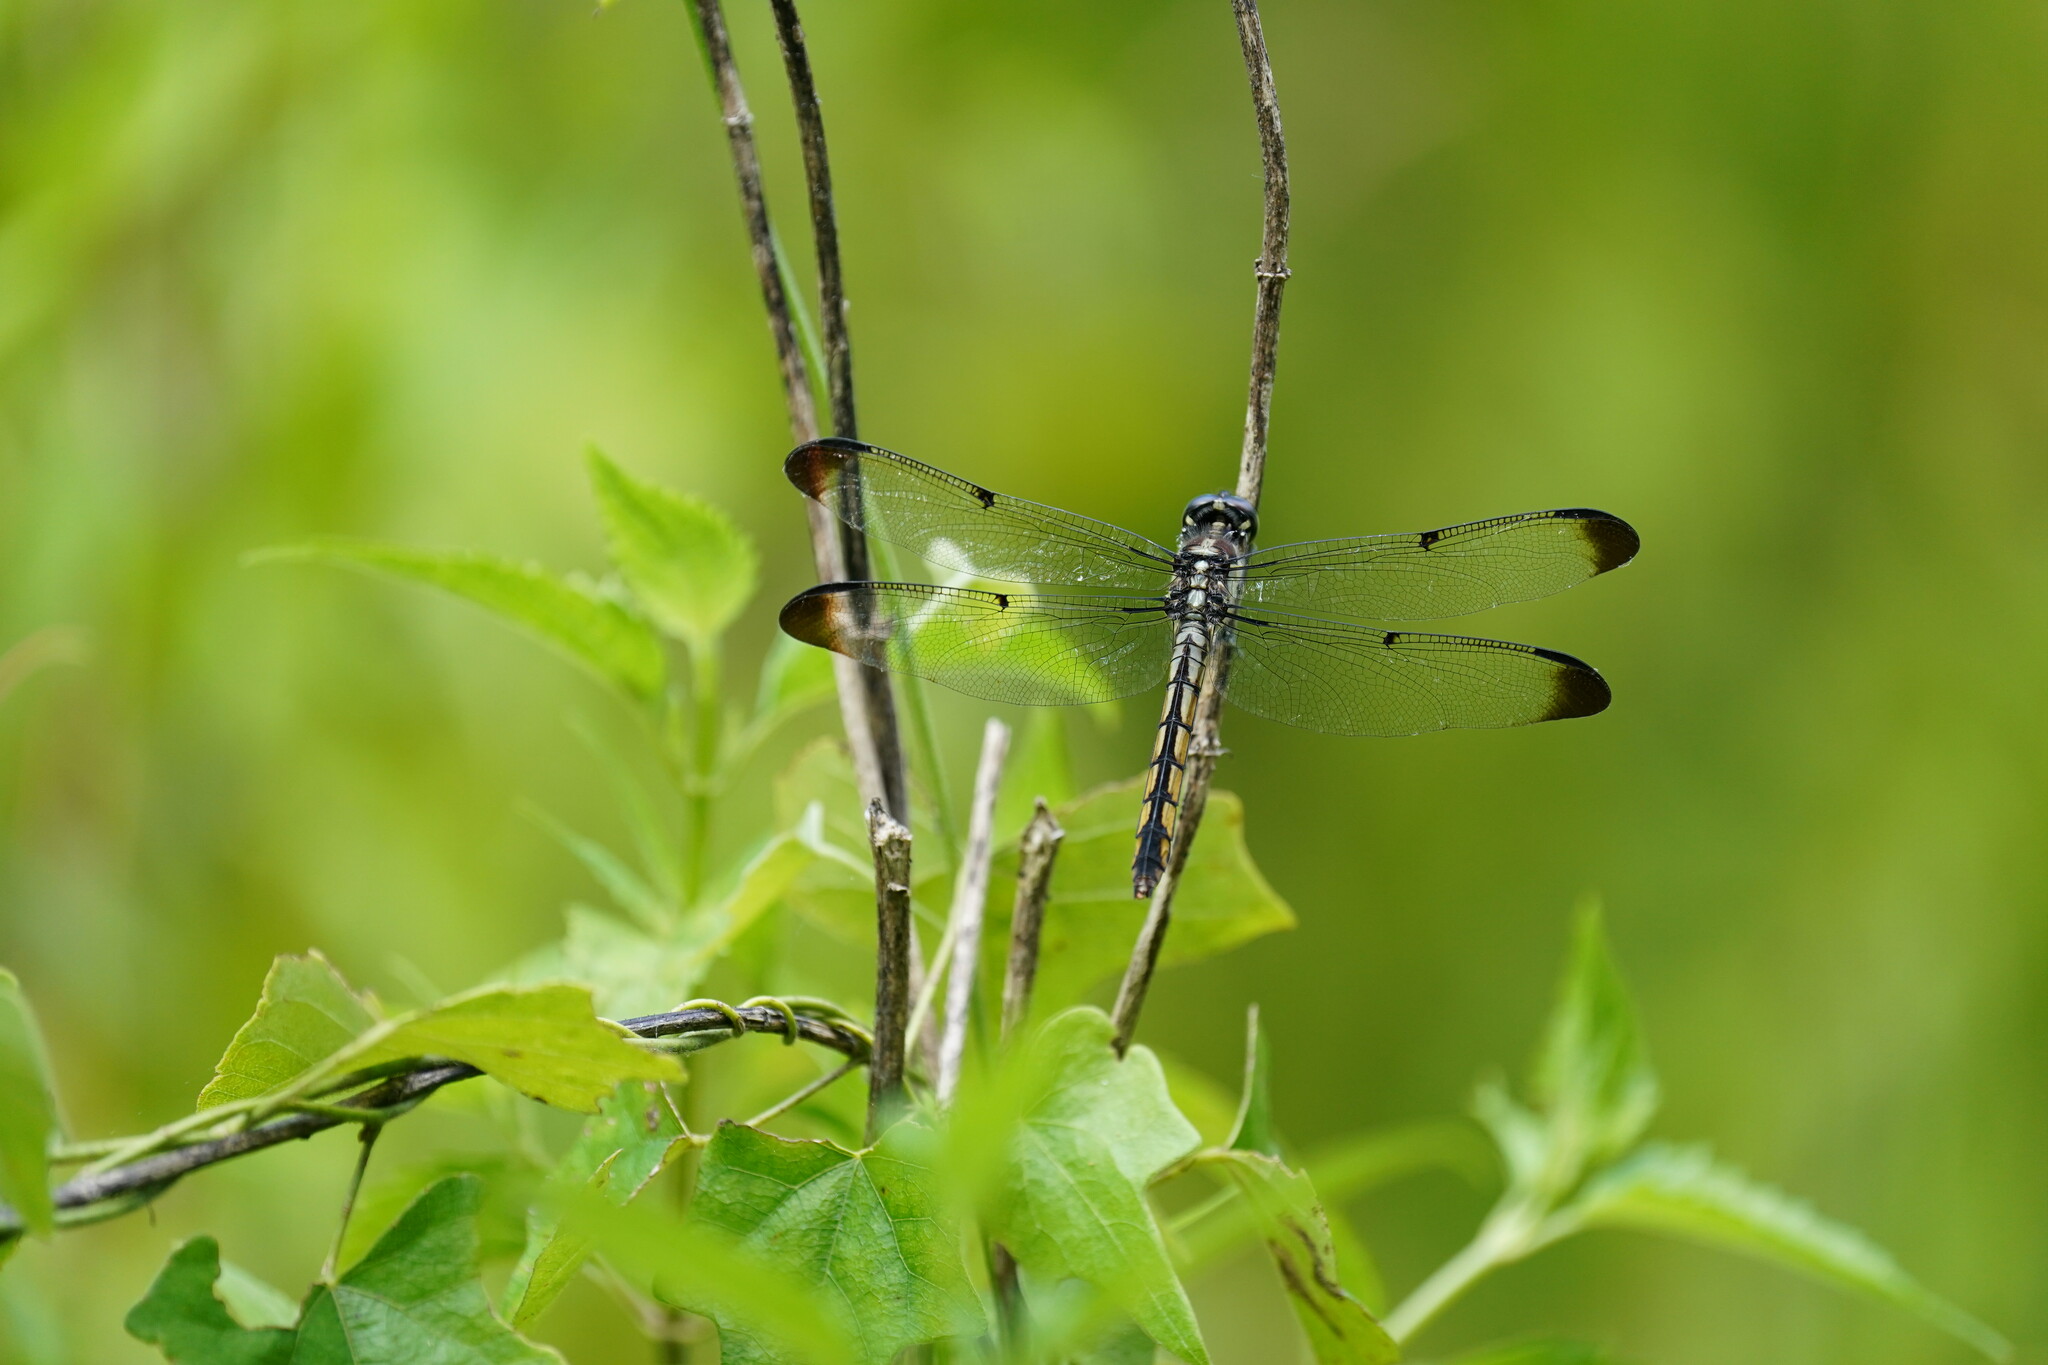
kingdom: Animalia
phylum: Arthropoda
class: Insecta
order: Odonata
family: Libellulidae
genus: Libellula
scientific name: Libellula vibrans
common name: Great blue skimmer
